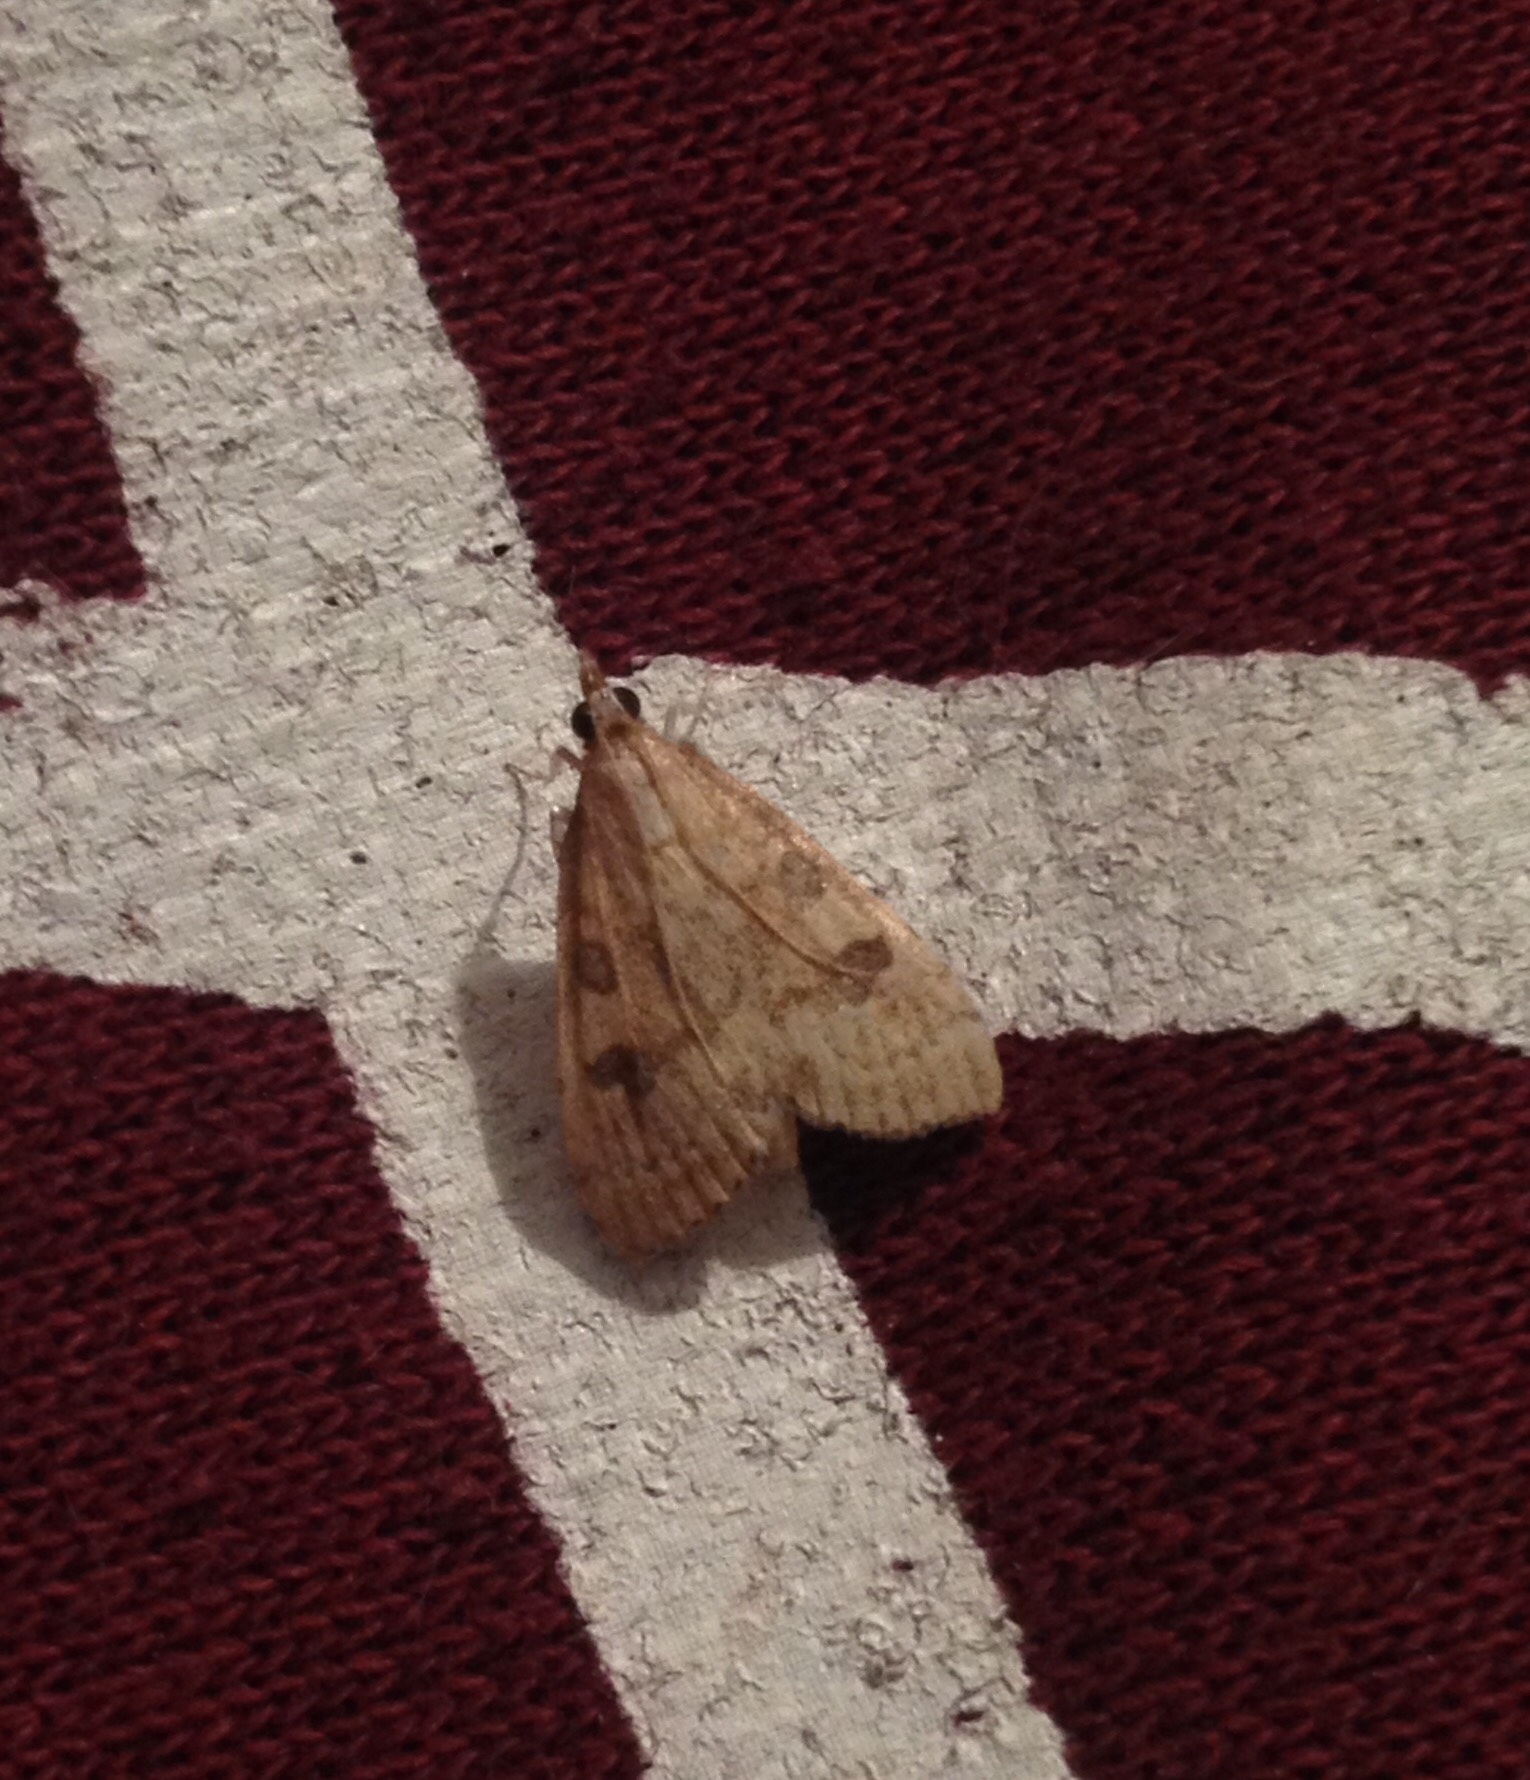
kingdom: Animalia
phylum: Arthropoda
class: Insecta
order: Lepidoptera
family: Crambidae
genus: Udea
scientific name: Udea fulvalis
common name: Fulvous pearl
